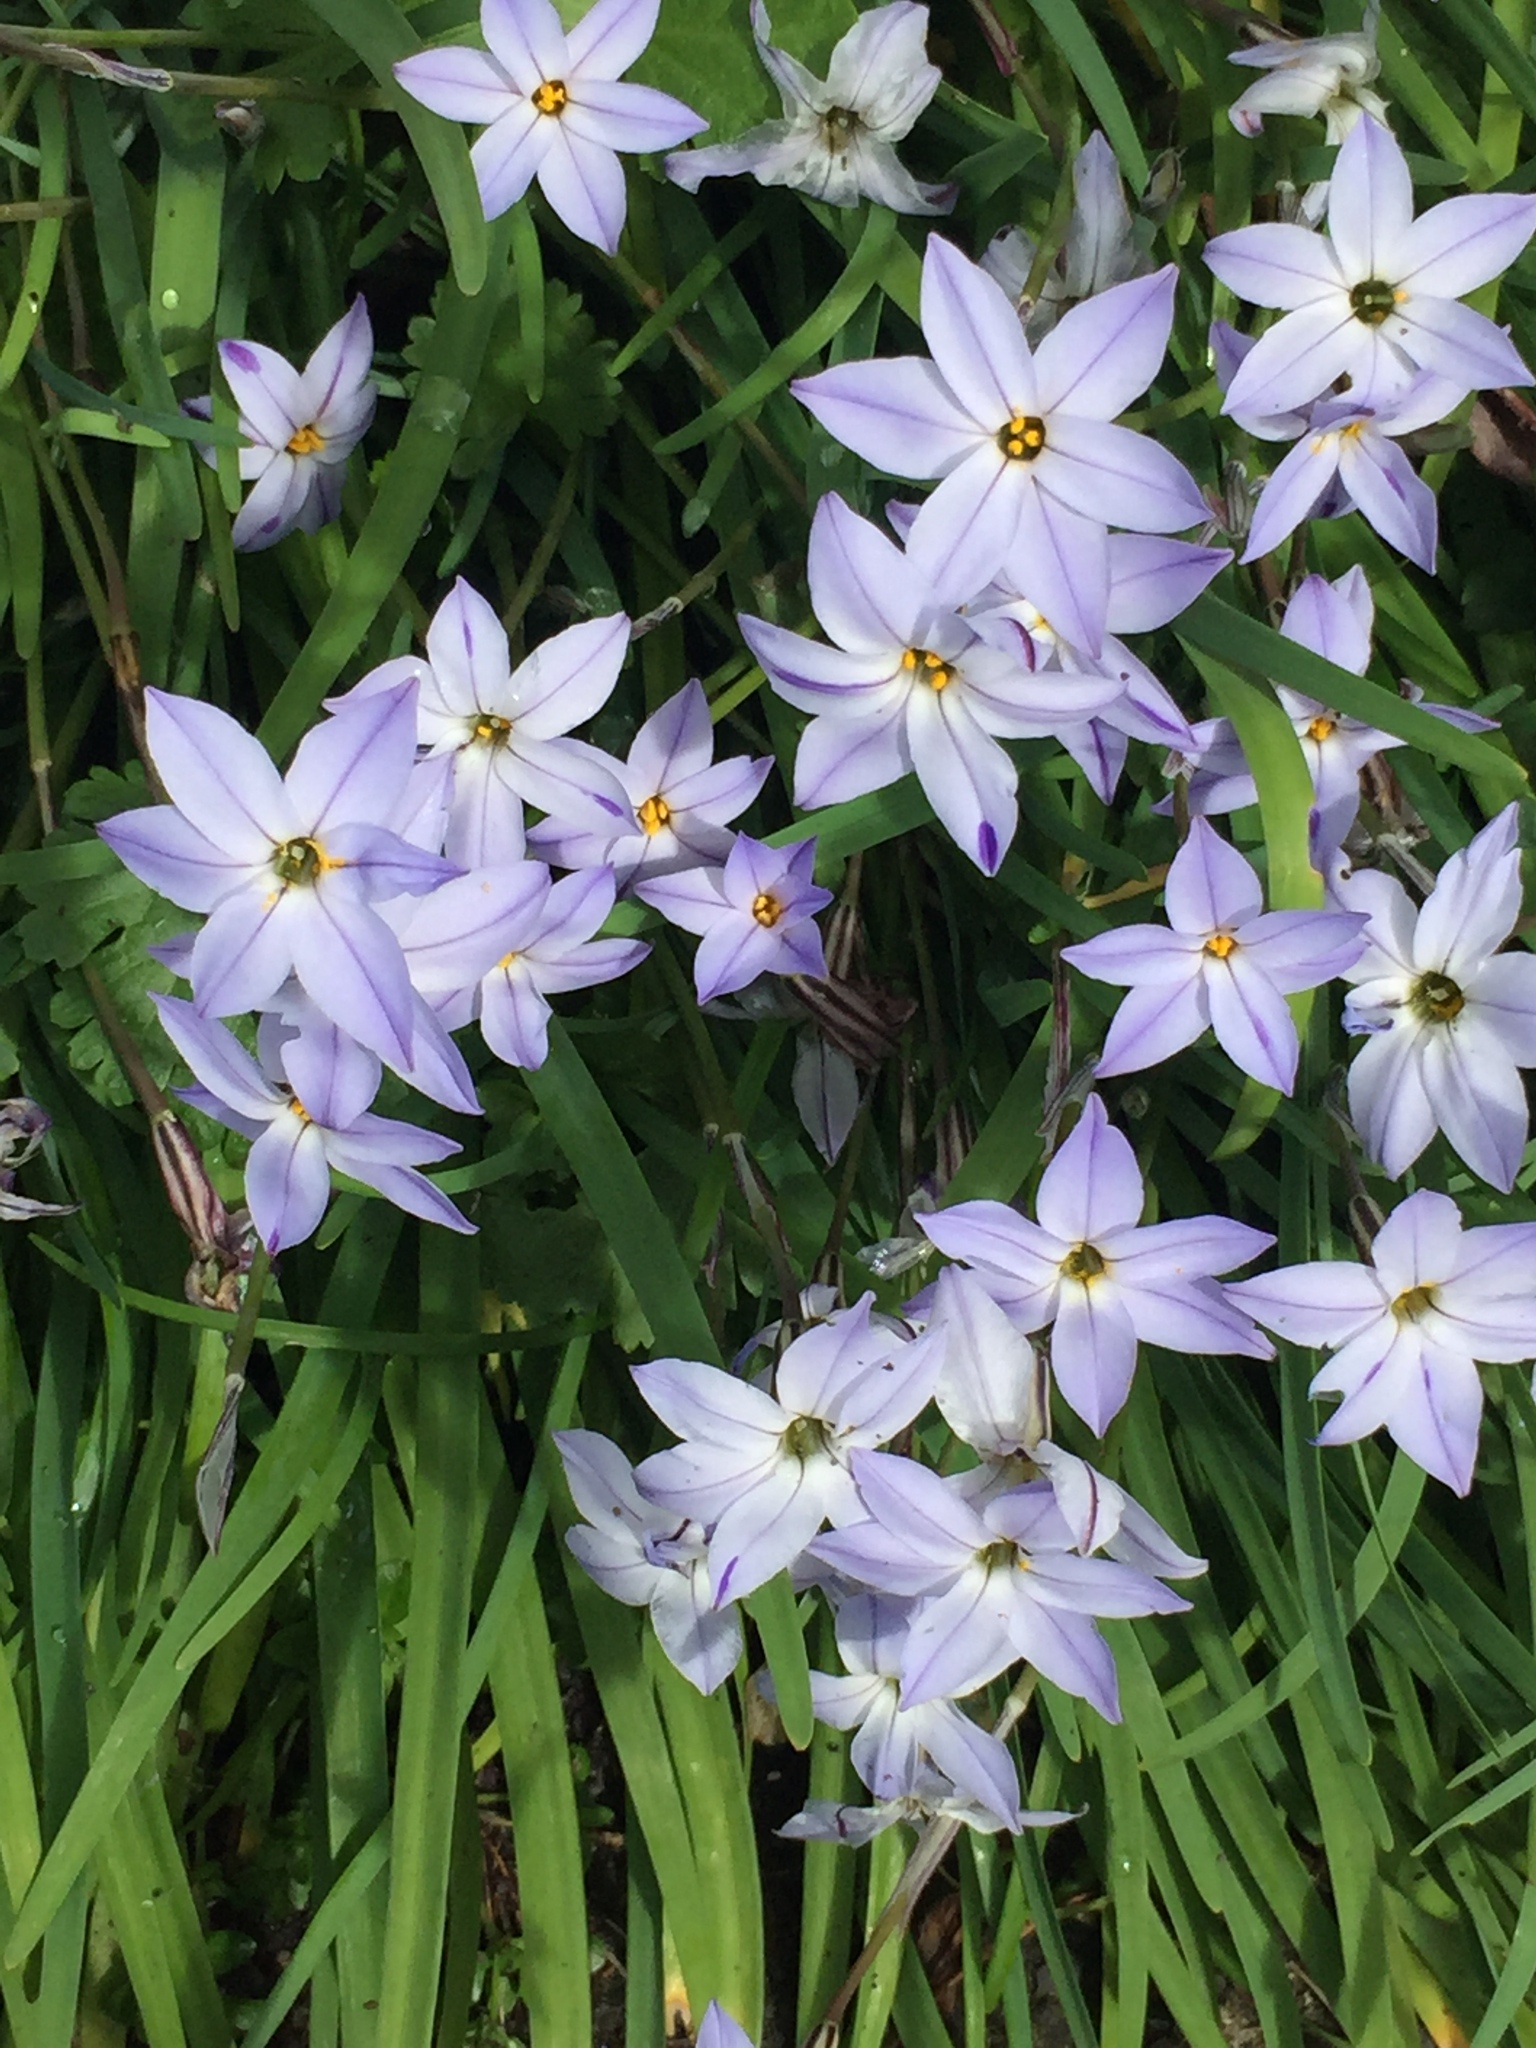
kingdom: Plantae
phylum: Tracheophyta
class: Liliopsida
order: Asparagales
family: Amaryllidaceae
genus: Ipheion
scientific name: Ipheion uniflorum
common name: Spring starflower
